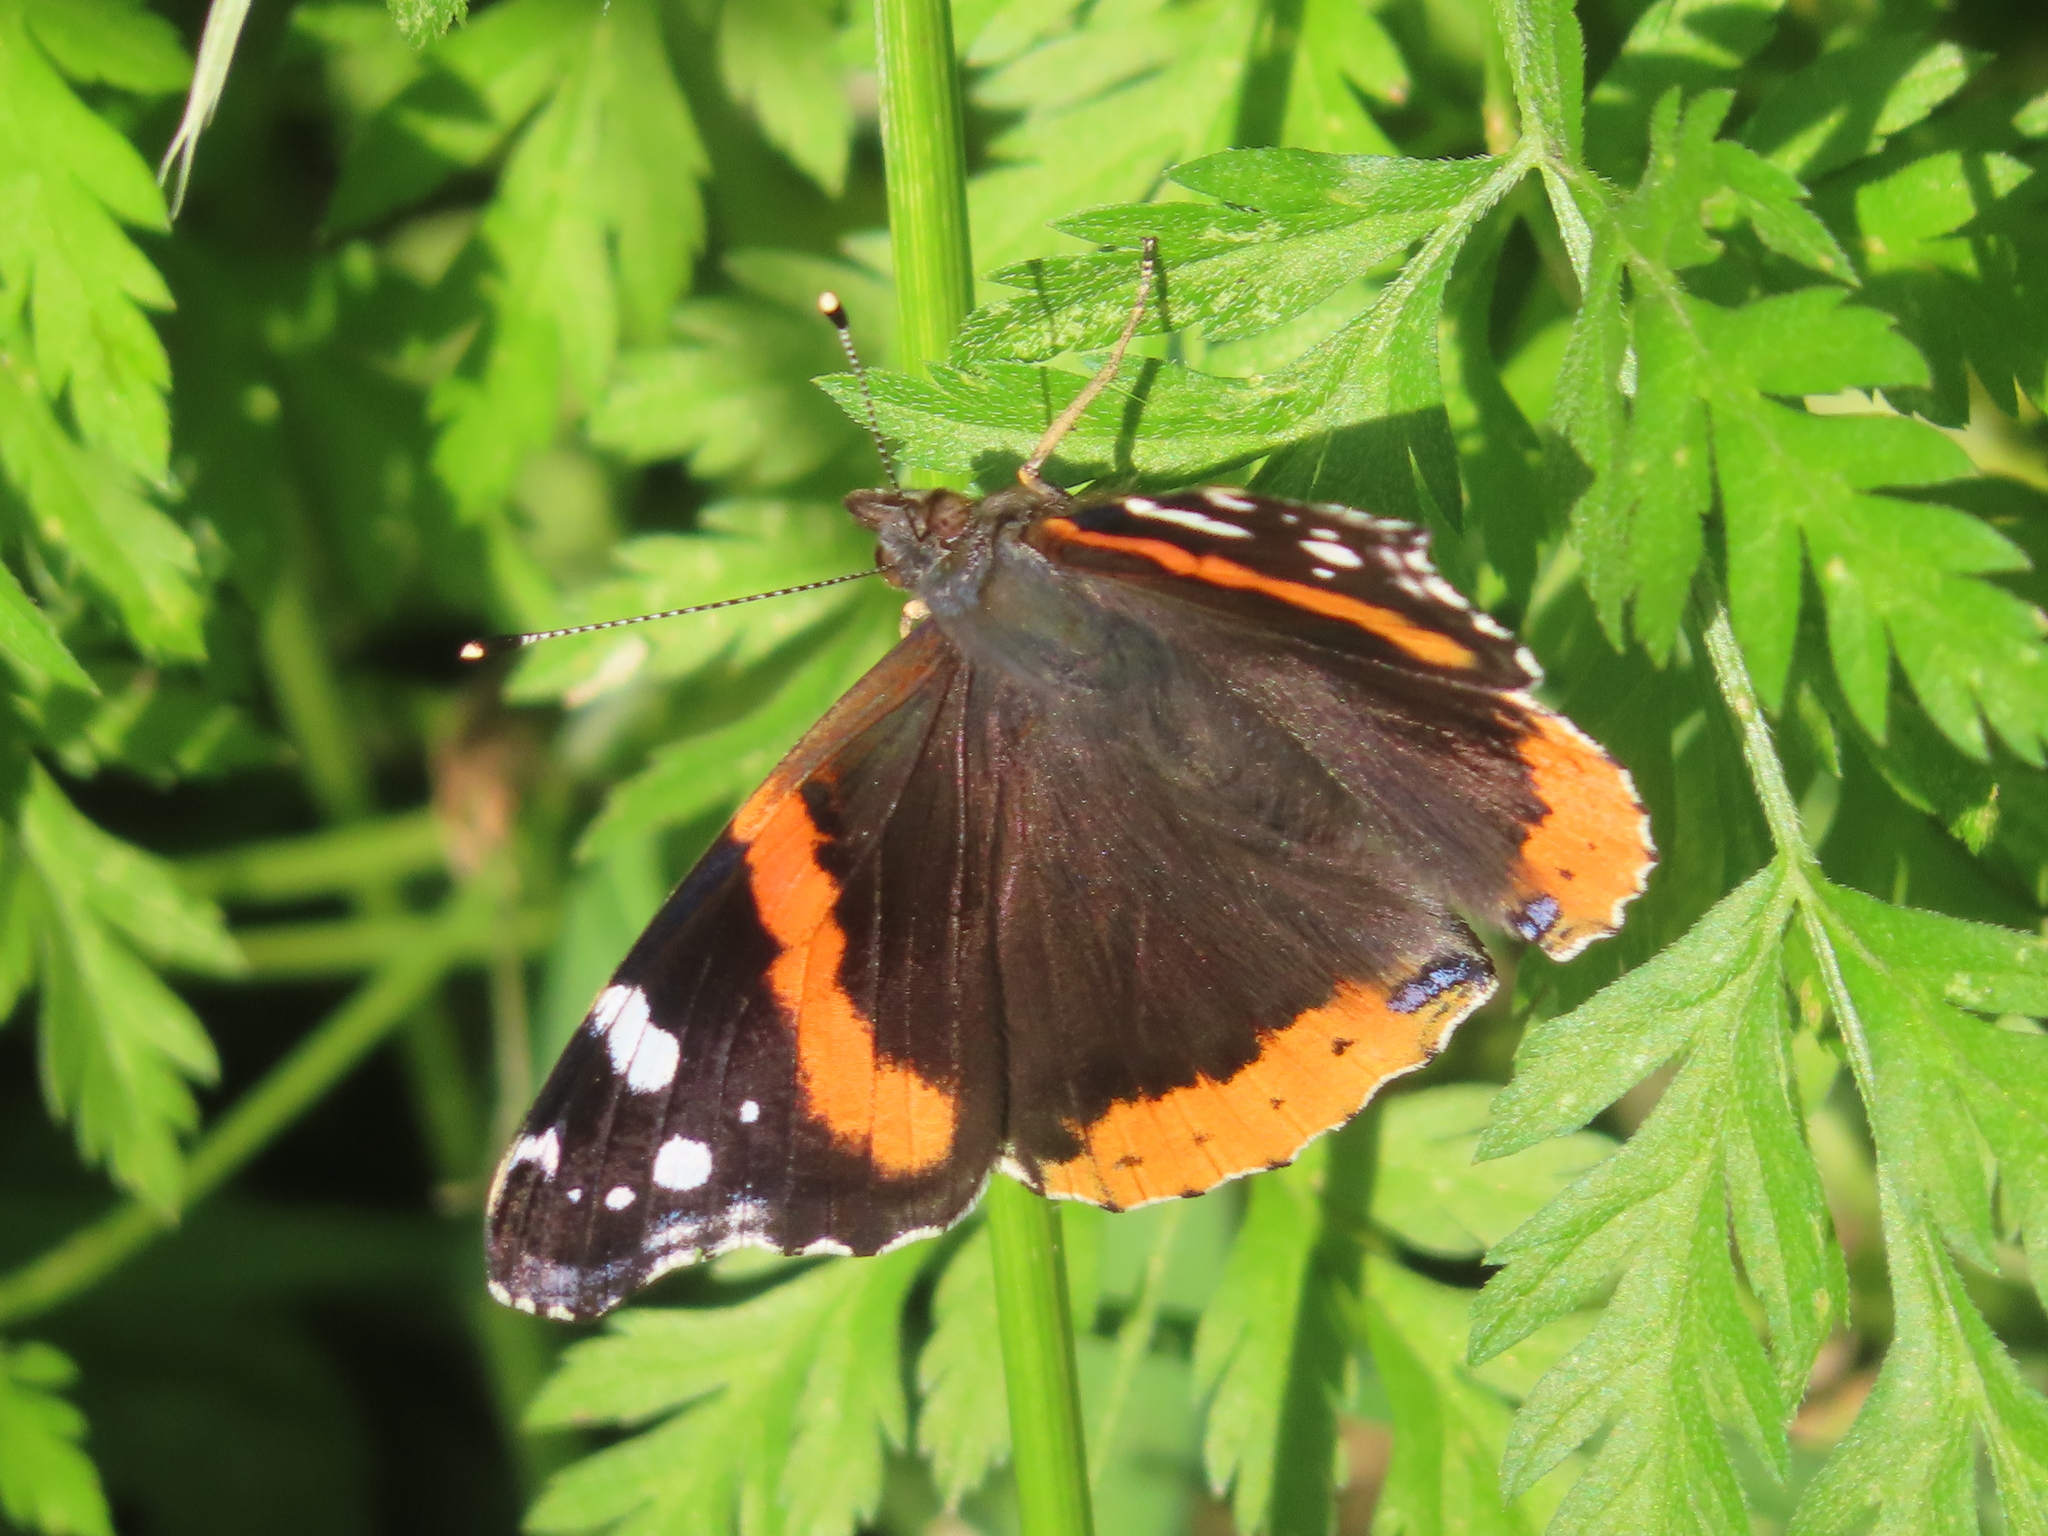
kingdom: Animalia
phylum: Arthropoda
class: Insecta
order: Lepidoptera
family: Nymphalidae
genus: Vanessa
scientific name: Vanessa atalanta
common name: Red admiral
